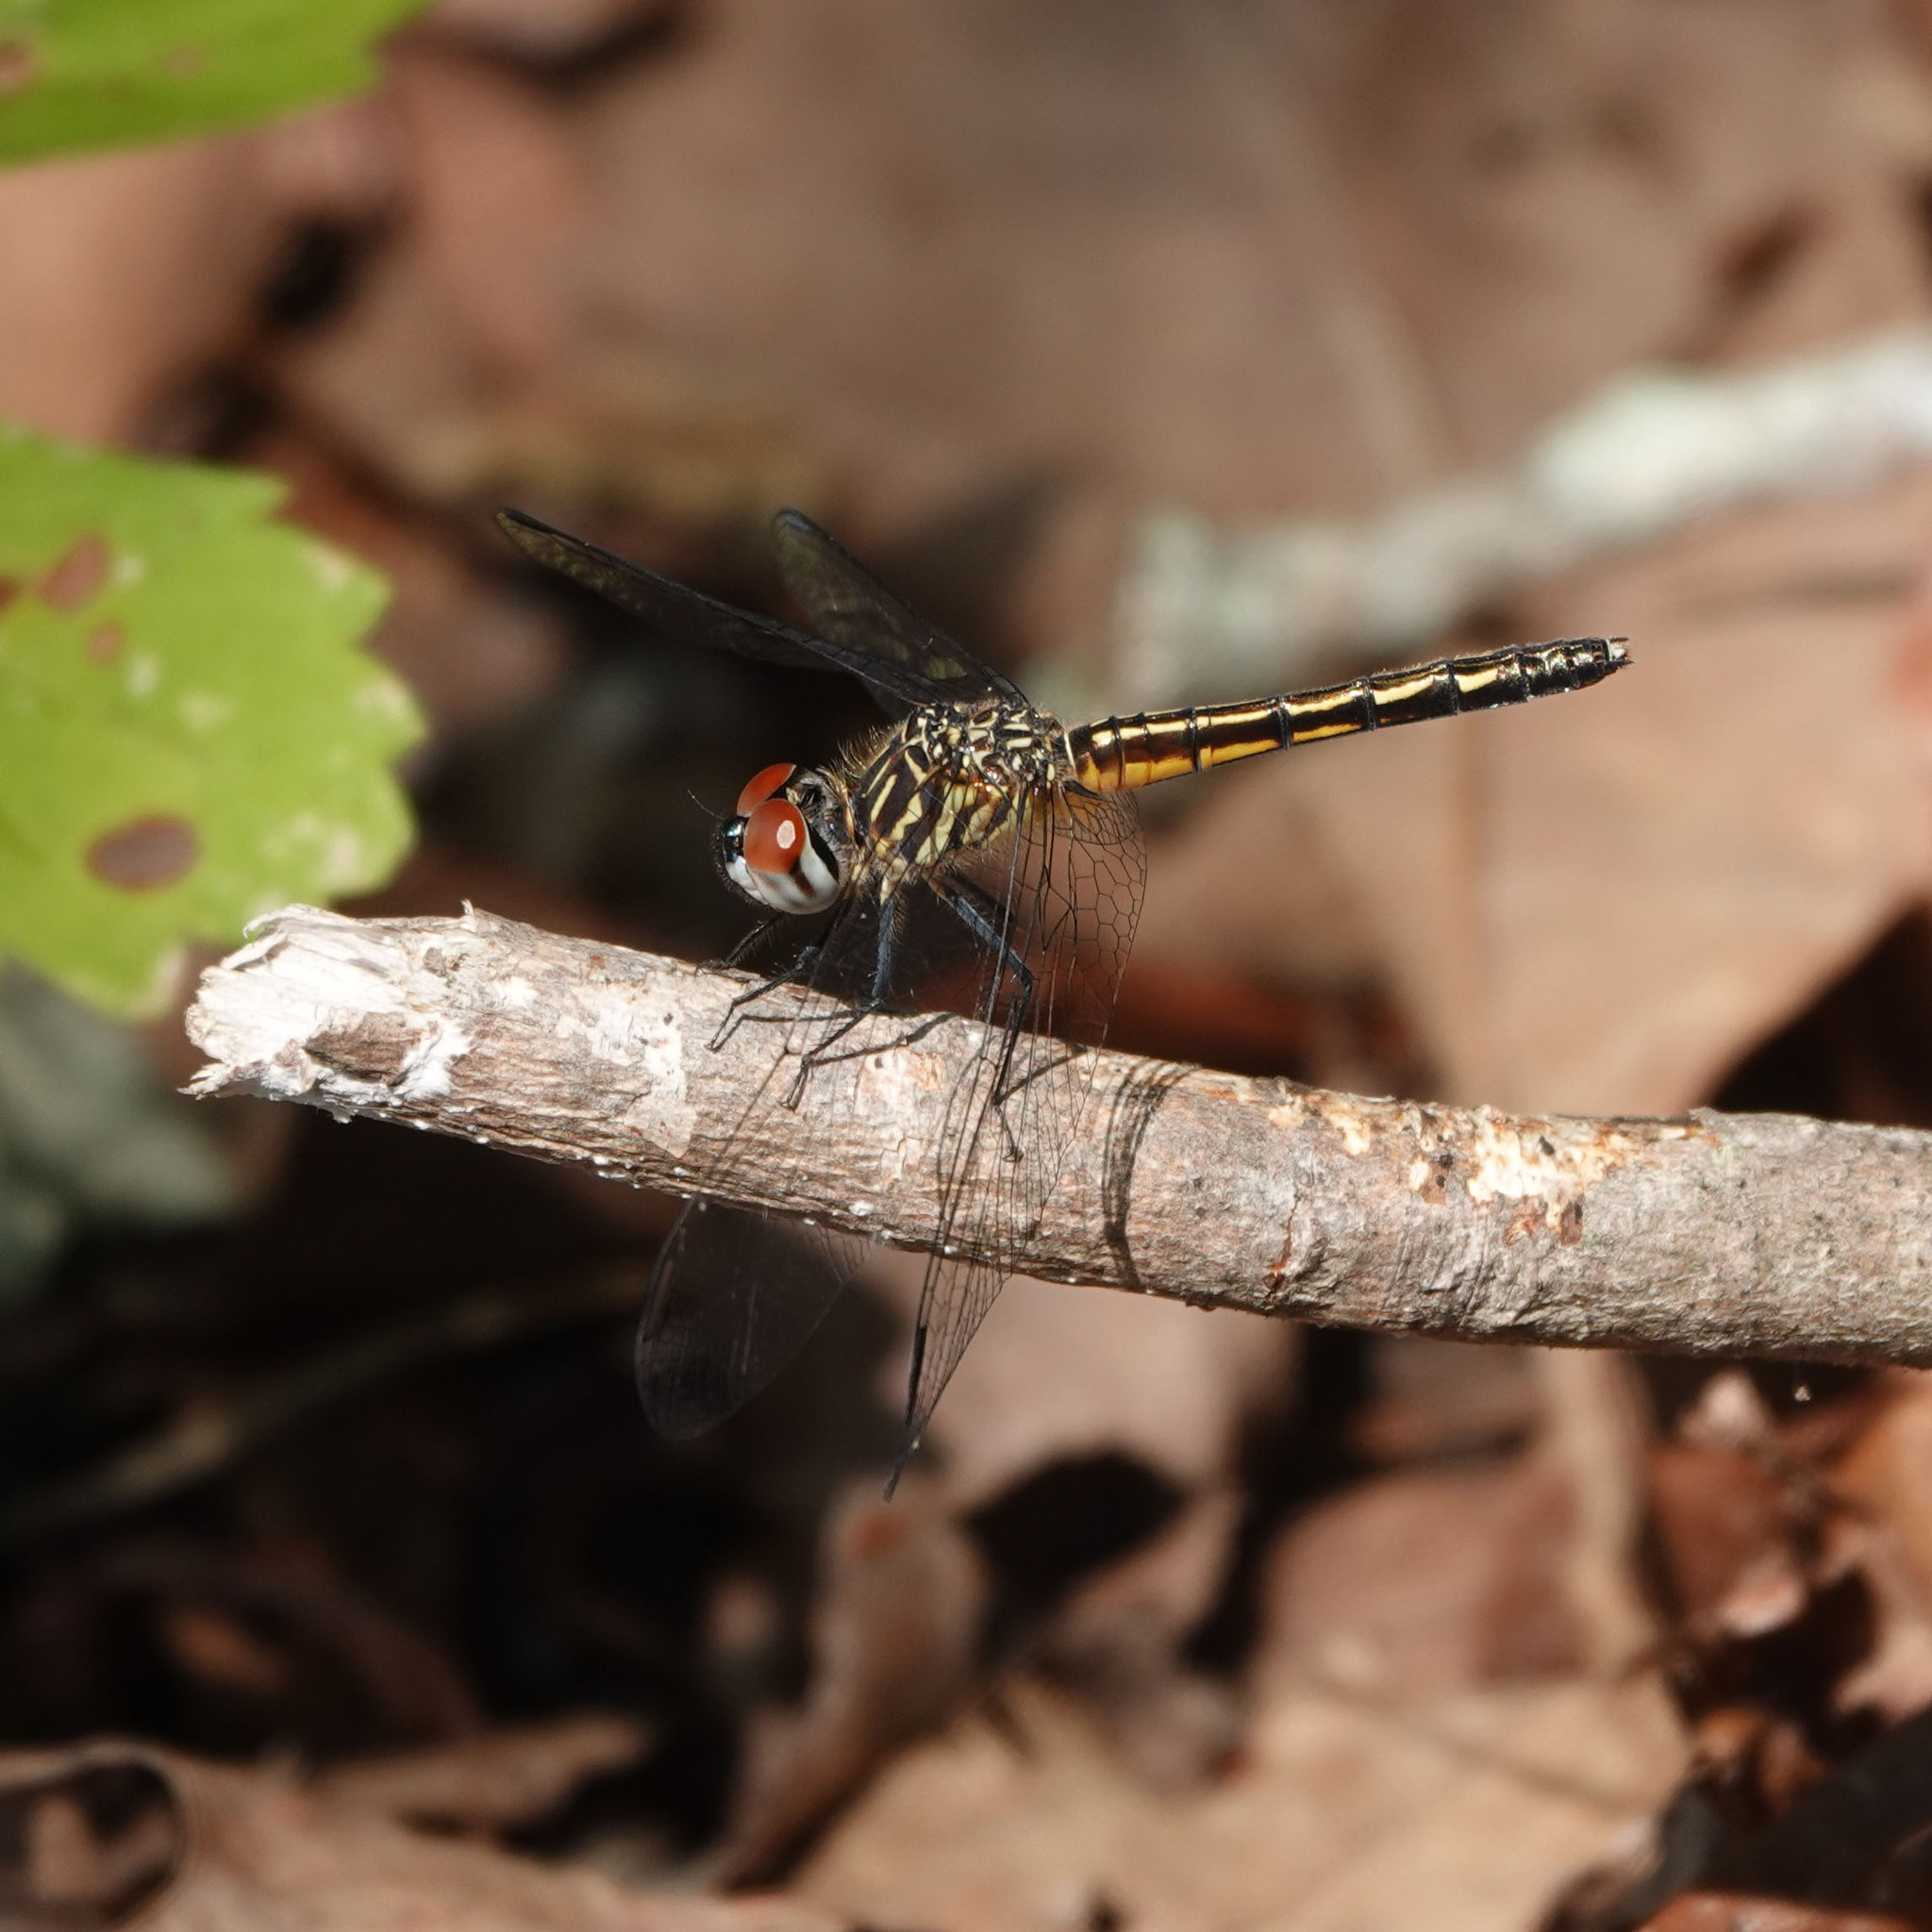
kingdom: Animalia
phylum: Arthropoda
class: Insecta
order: Odonata
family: Libellulidae
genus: Pachydiplax
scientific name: Pachydiplax longipennis
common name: Blue dasher
